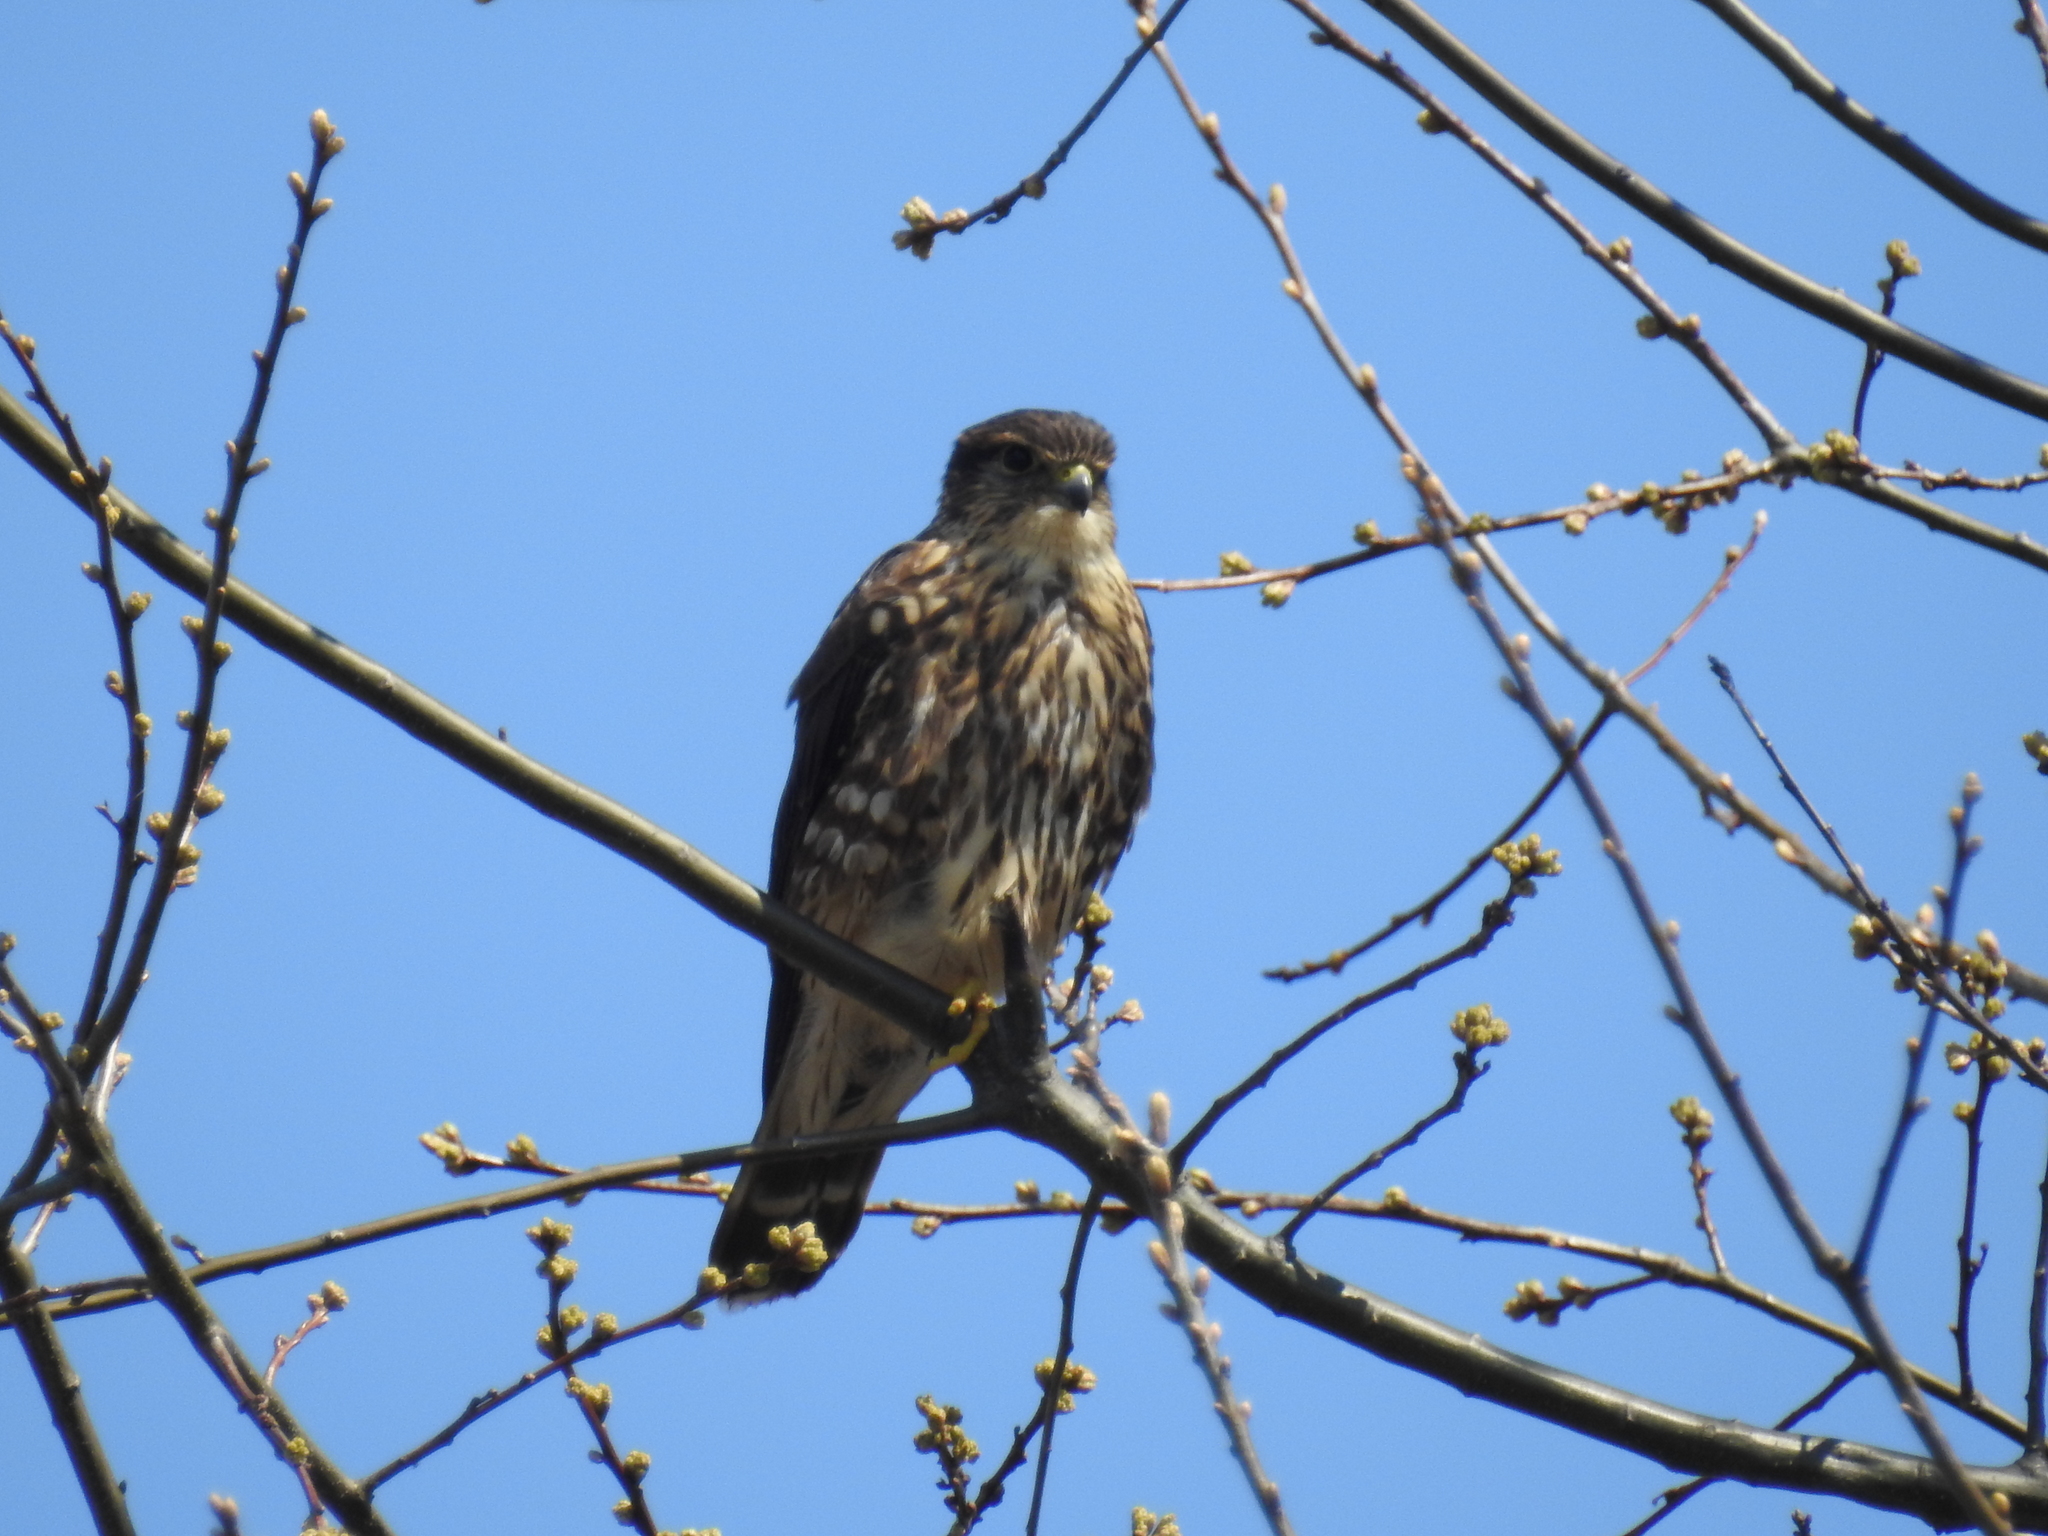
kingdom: Animalia
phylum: Chordata
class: Aves
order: Falconiformes
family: Falconidae
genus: Falco
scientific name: Falco columbarius
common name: Merlin
